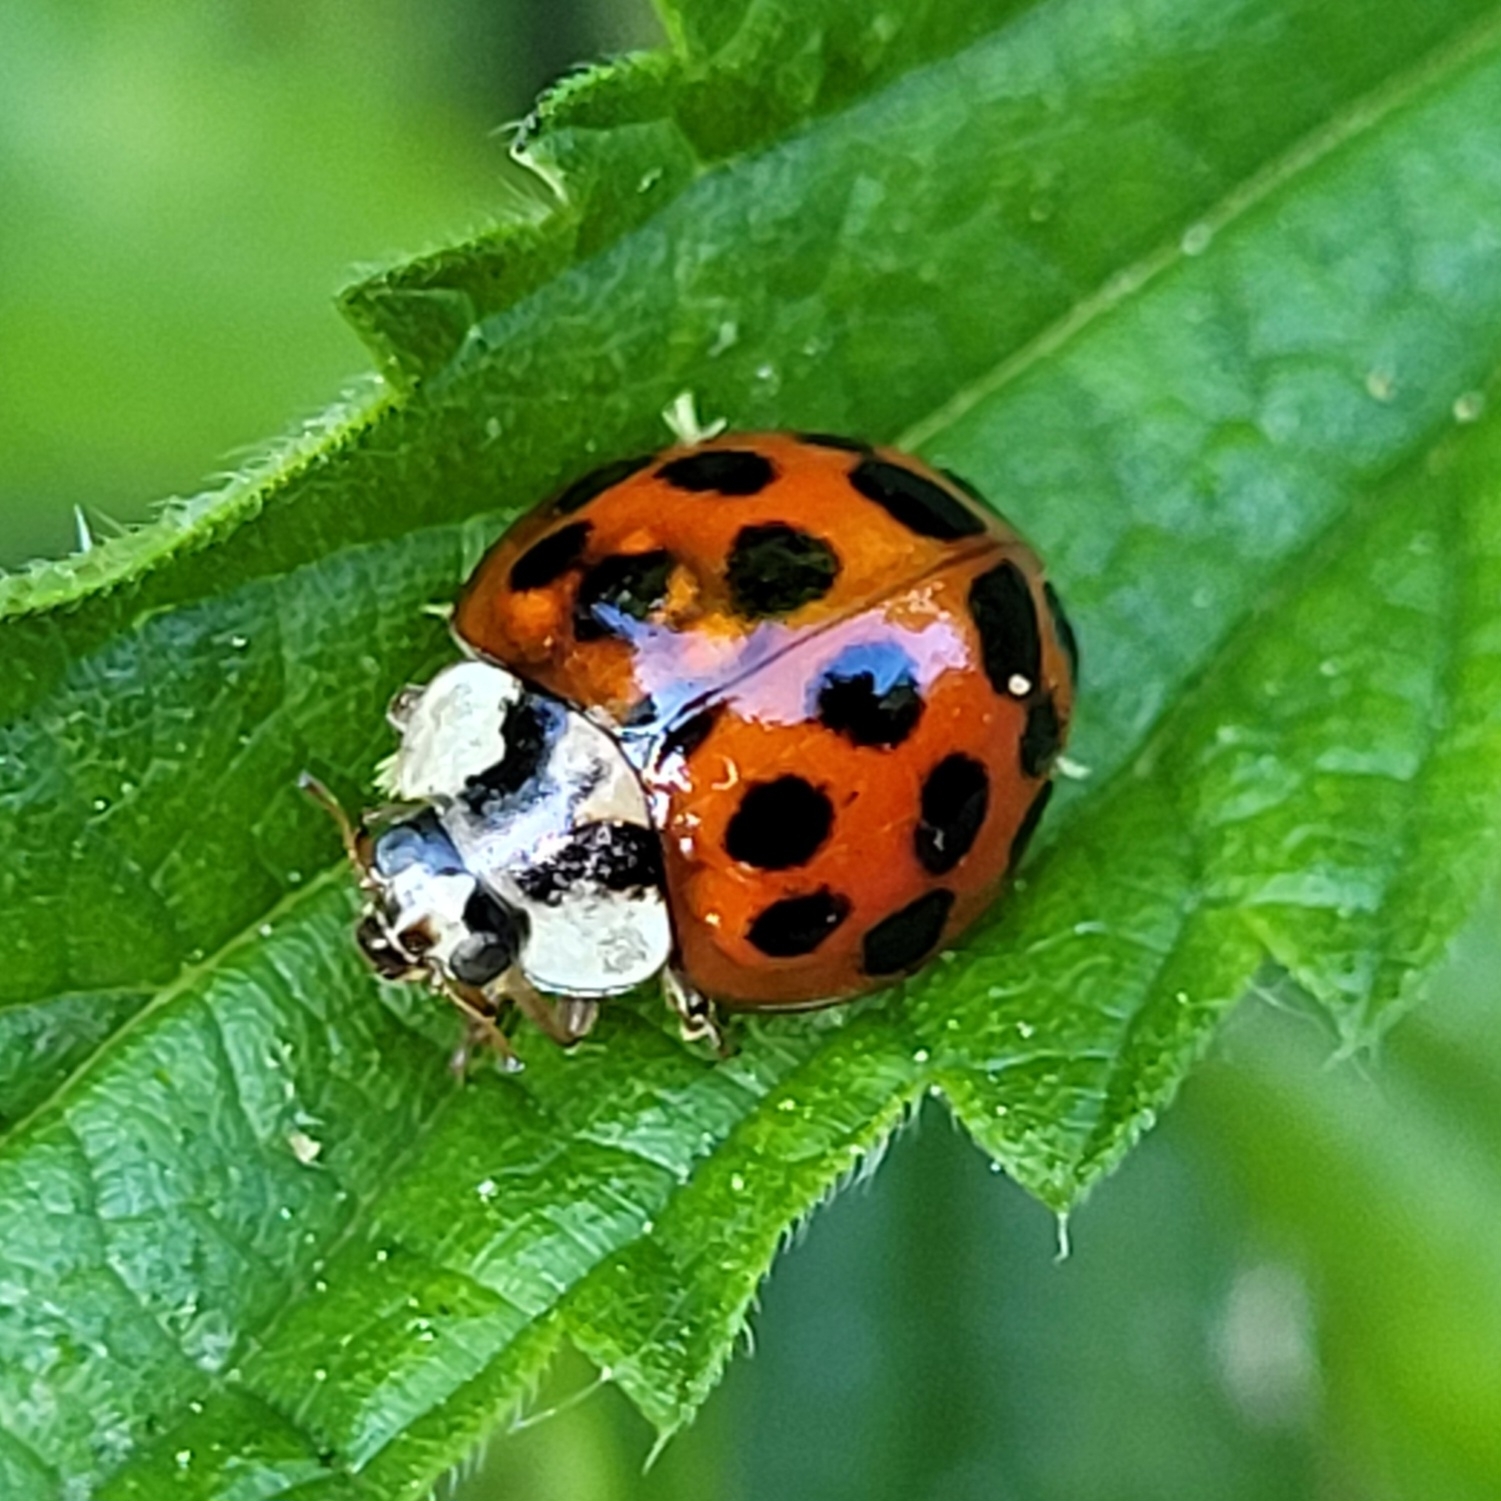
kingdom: Fungi
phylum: Ascomycota
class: Laboulbeniomycetes
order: Laboulbeniales
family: Laboulbeniaceae
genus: Hesperomyces
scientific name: Hesperomyces harmoniae
